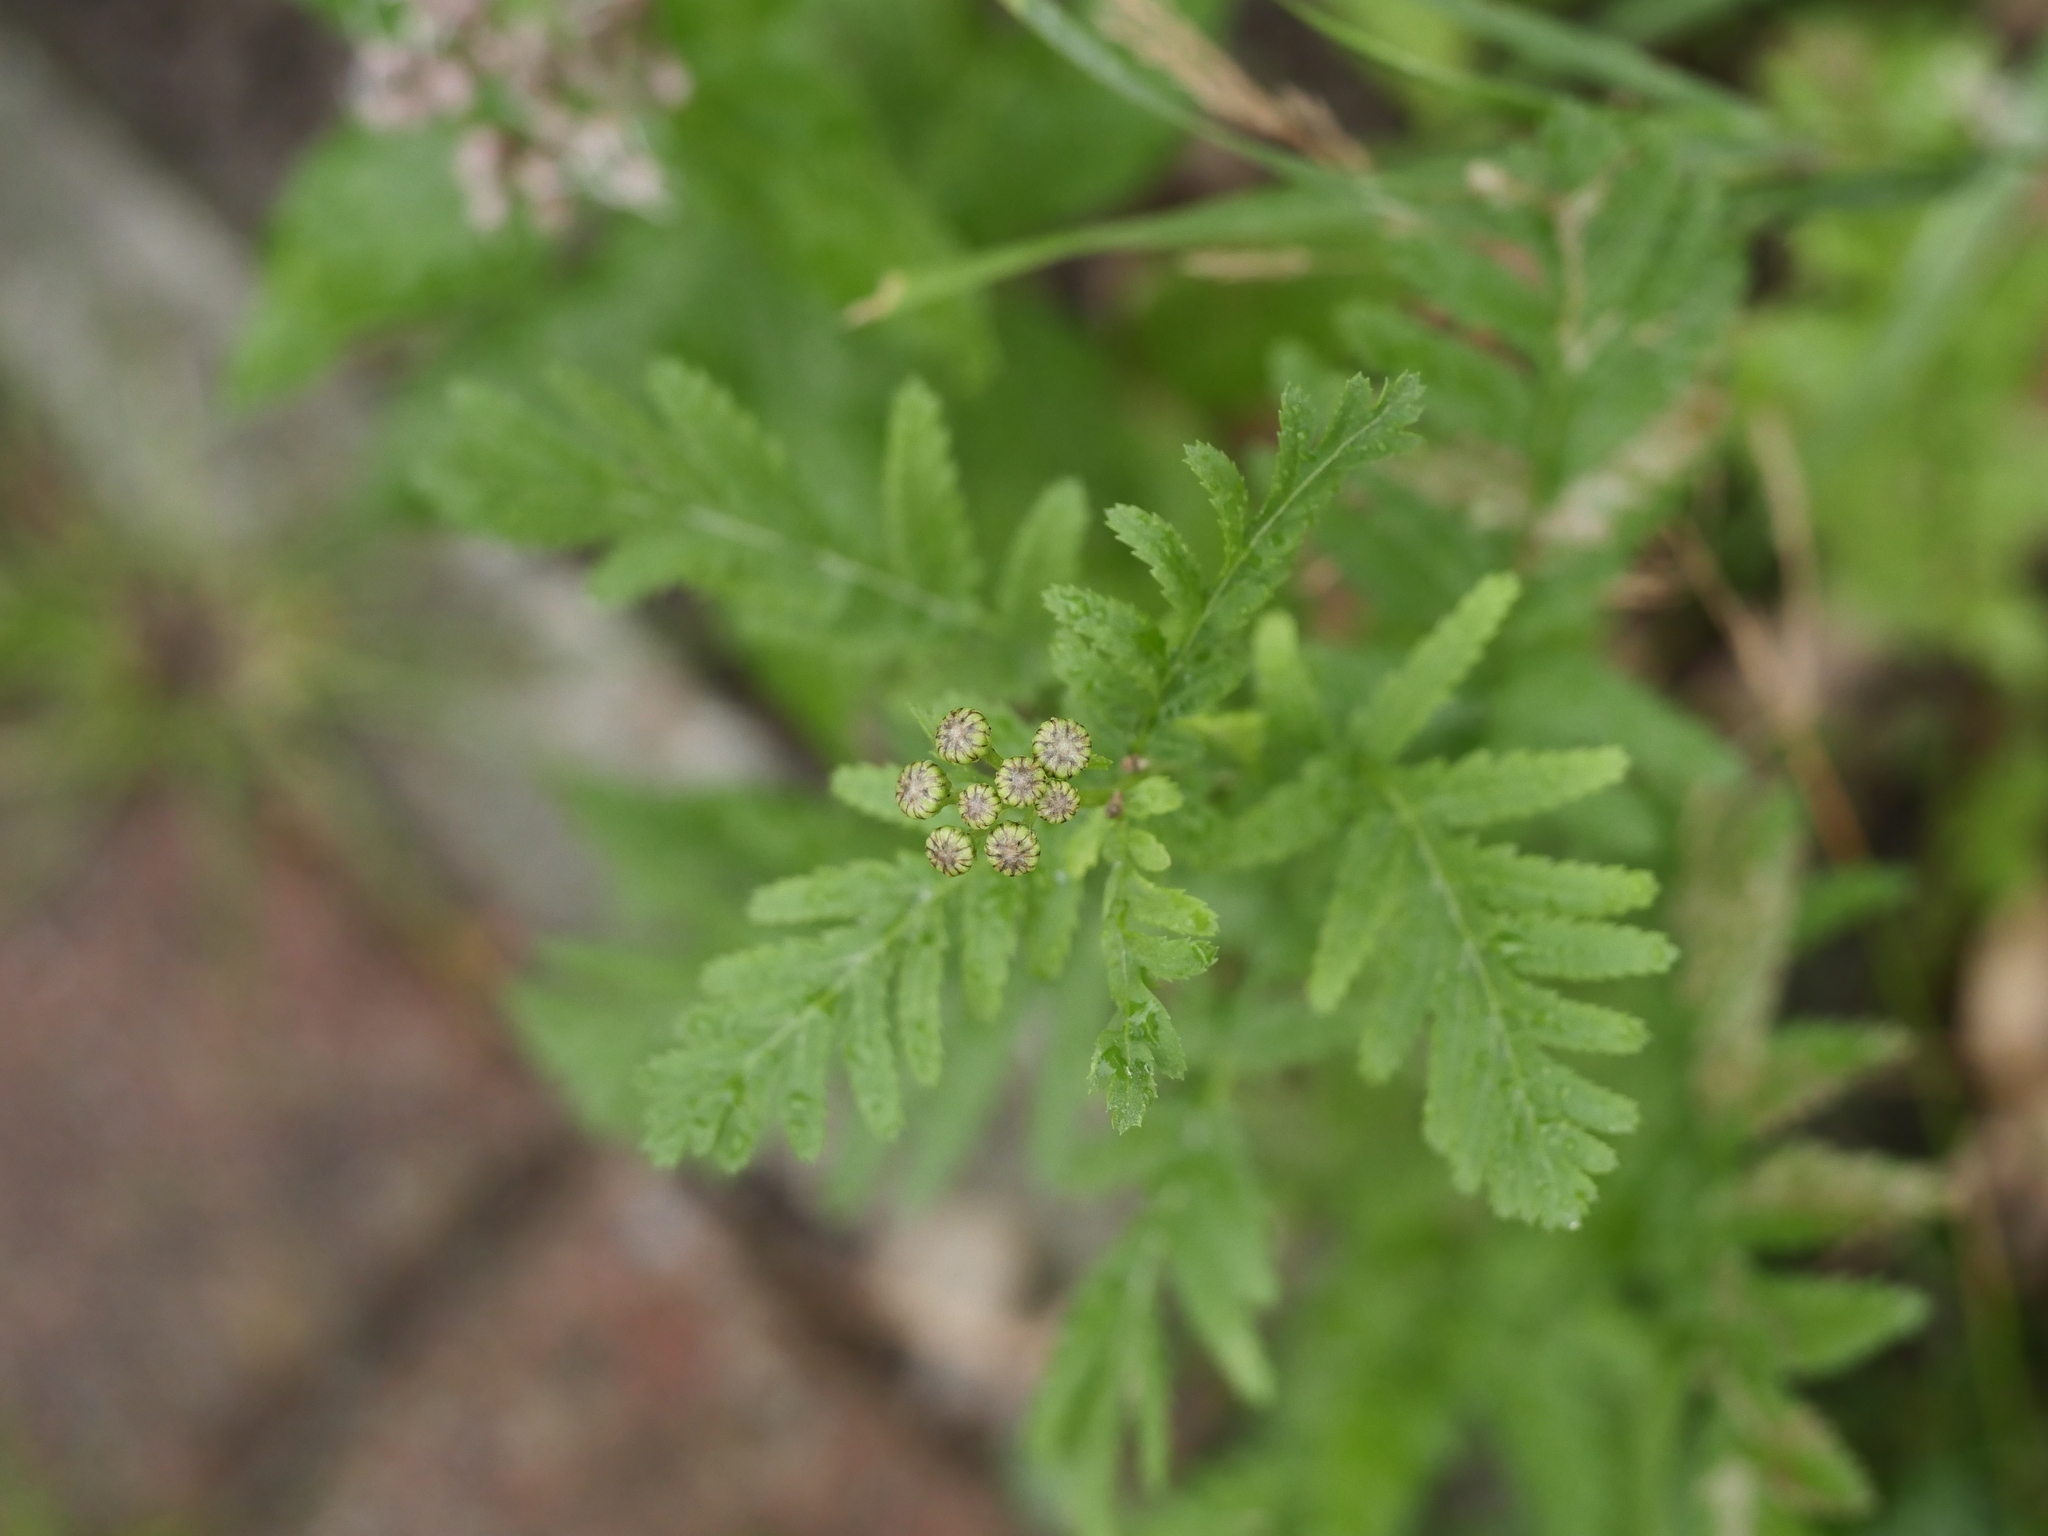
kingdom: Plantae
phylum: Tracheophyta
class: Magnoliopsida
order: Asterales
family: Asteraceae
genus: Tanacetum
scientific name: Tanacetum vulgare
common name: Common tansy
